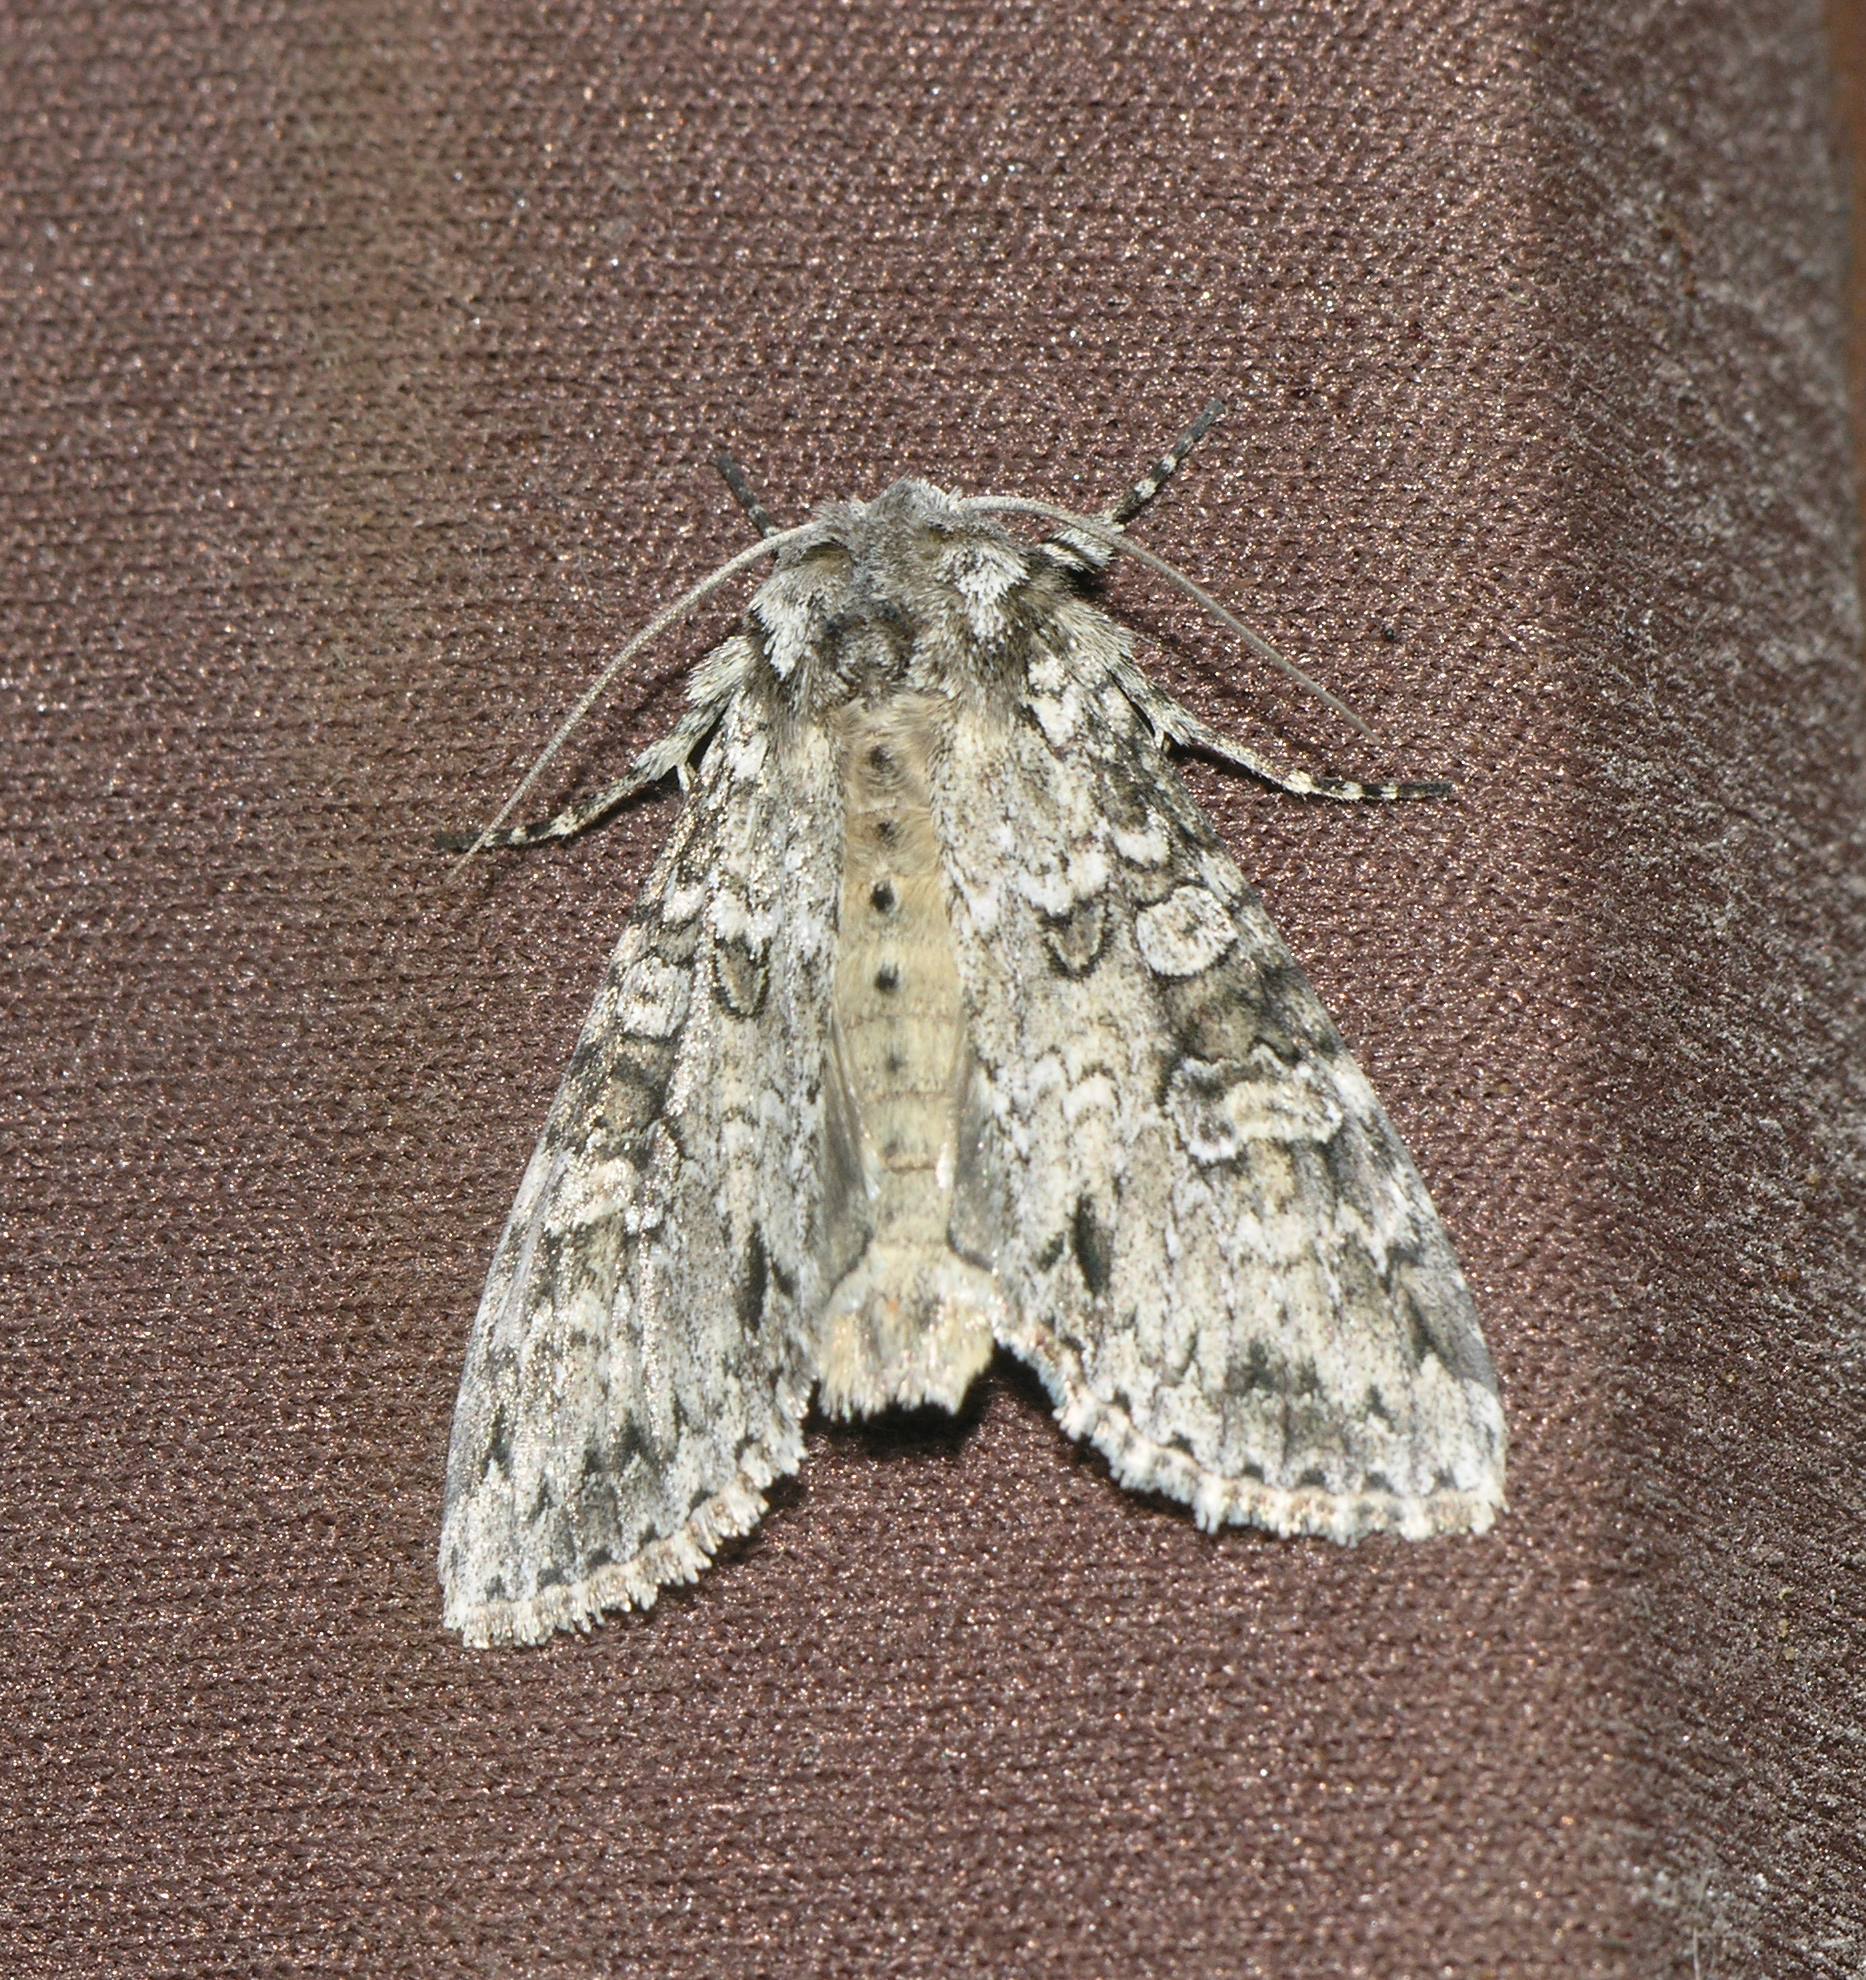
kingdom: Animalia
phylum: Arthropoda
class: Insecta
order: Lepidoptera
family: Noctuidae
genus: Polia
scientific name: Polia nebulosa
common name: Grey arches
